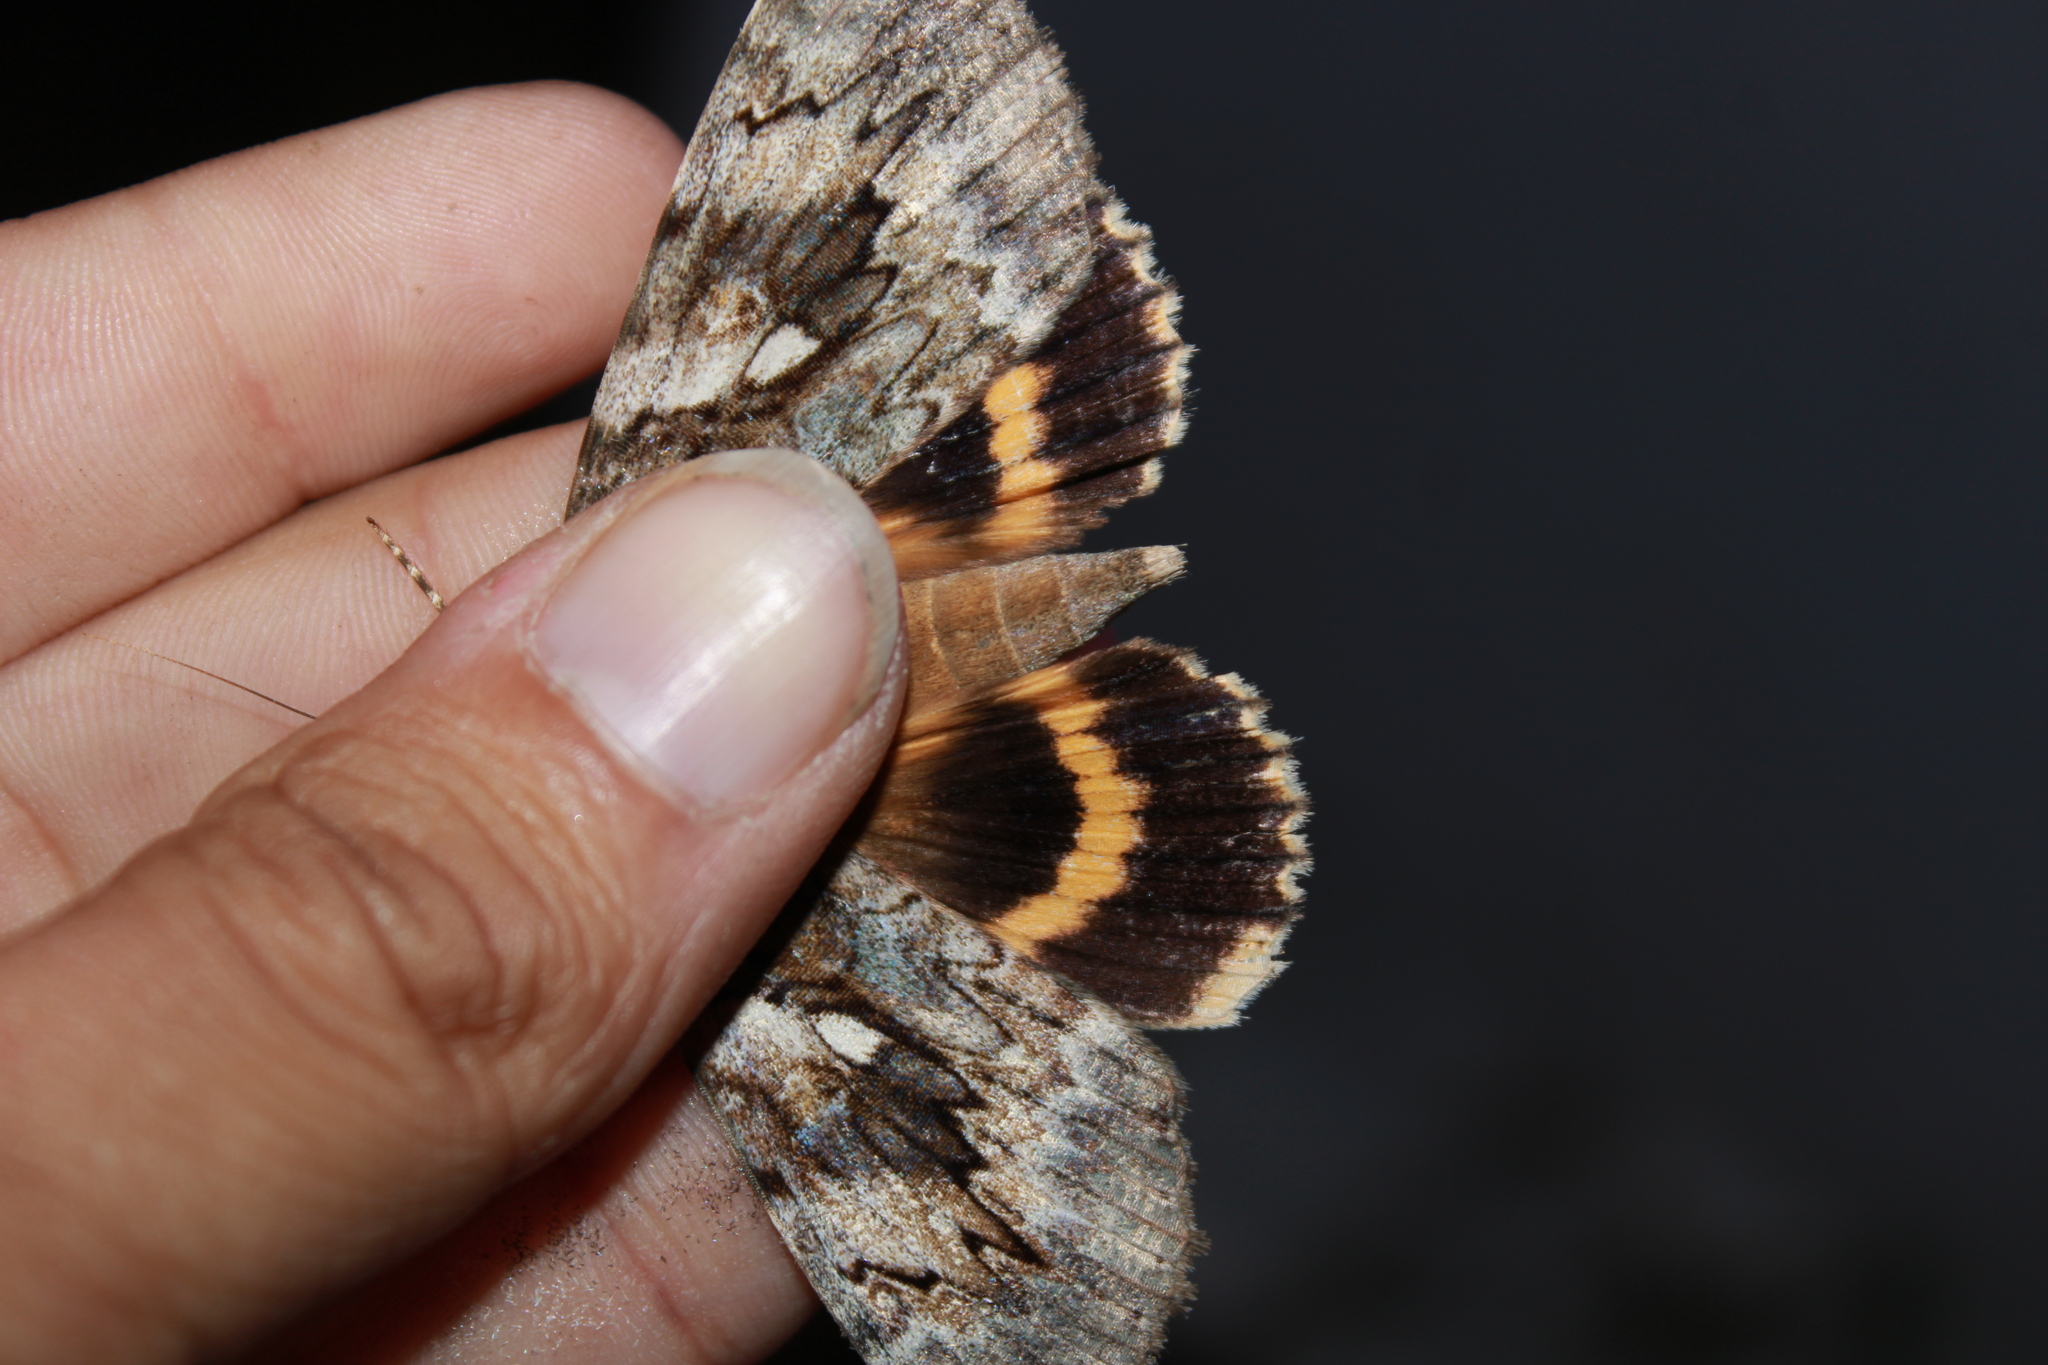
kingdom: Animalia
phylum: Arthropoda
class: Insecta
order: Lepidoptera
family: Erebidae
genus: Catocala
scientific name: Catocala cerogama
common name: Yellow banded underwing
